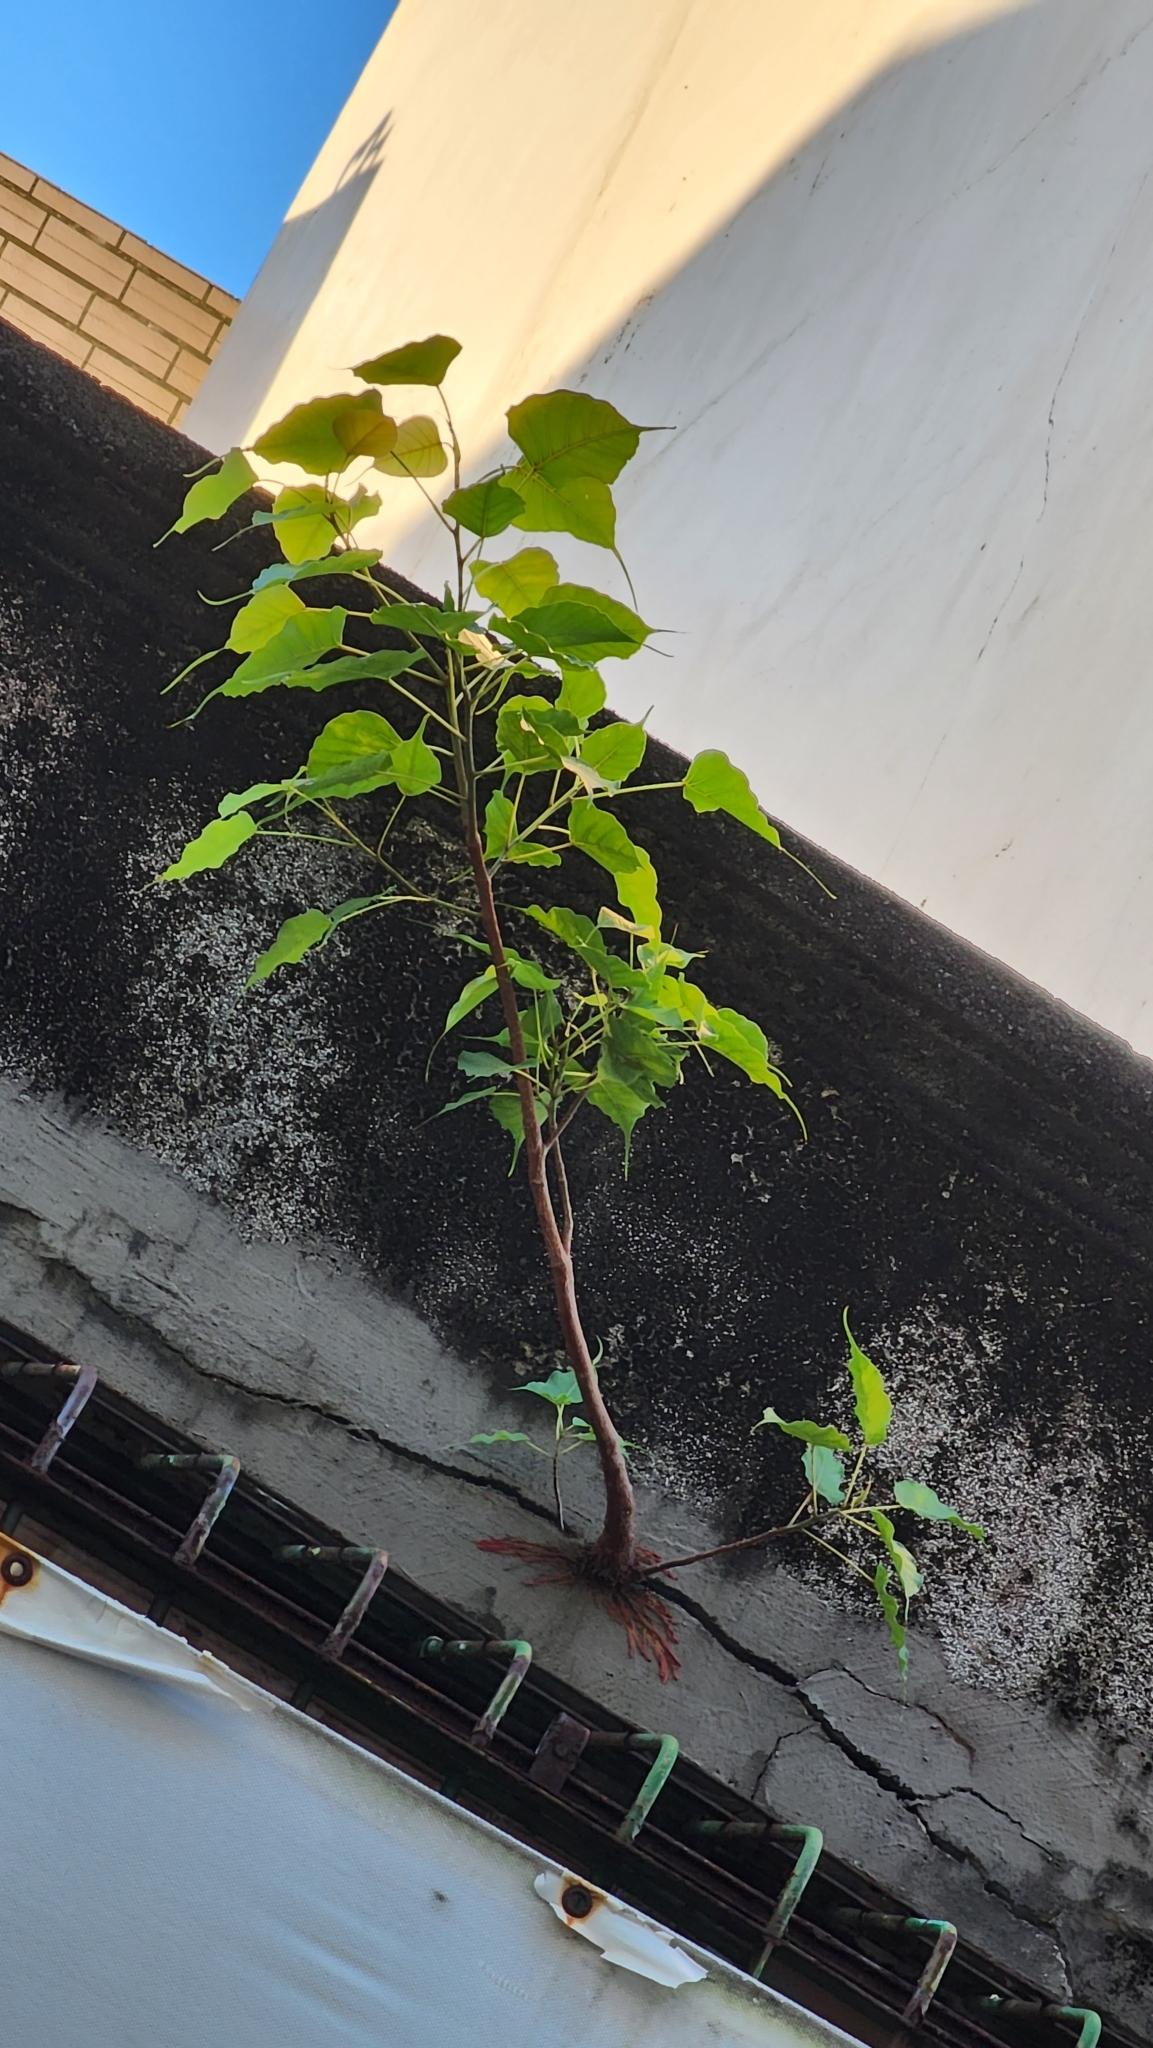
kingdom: Plantae
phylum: Tracheophyta
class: Magnoliopsida
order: Rosales
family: Moraceae
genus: Ficus
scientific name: Ficus religiosa
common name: Bodhi tree
